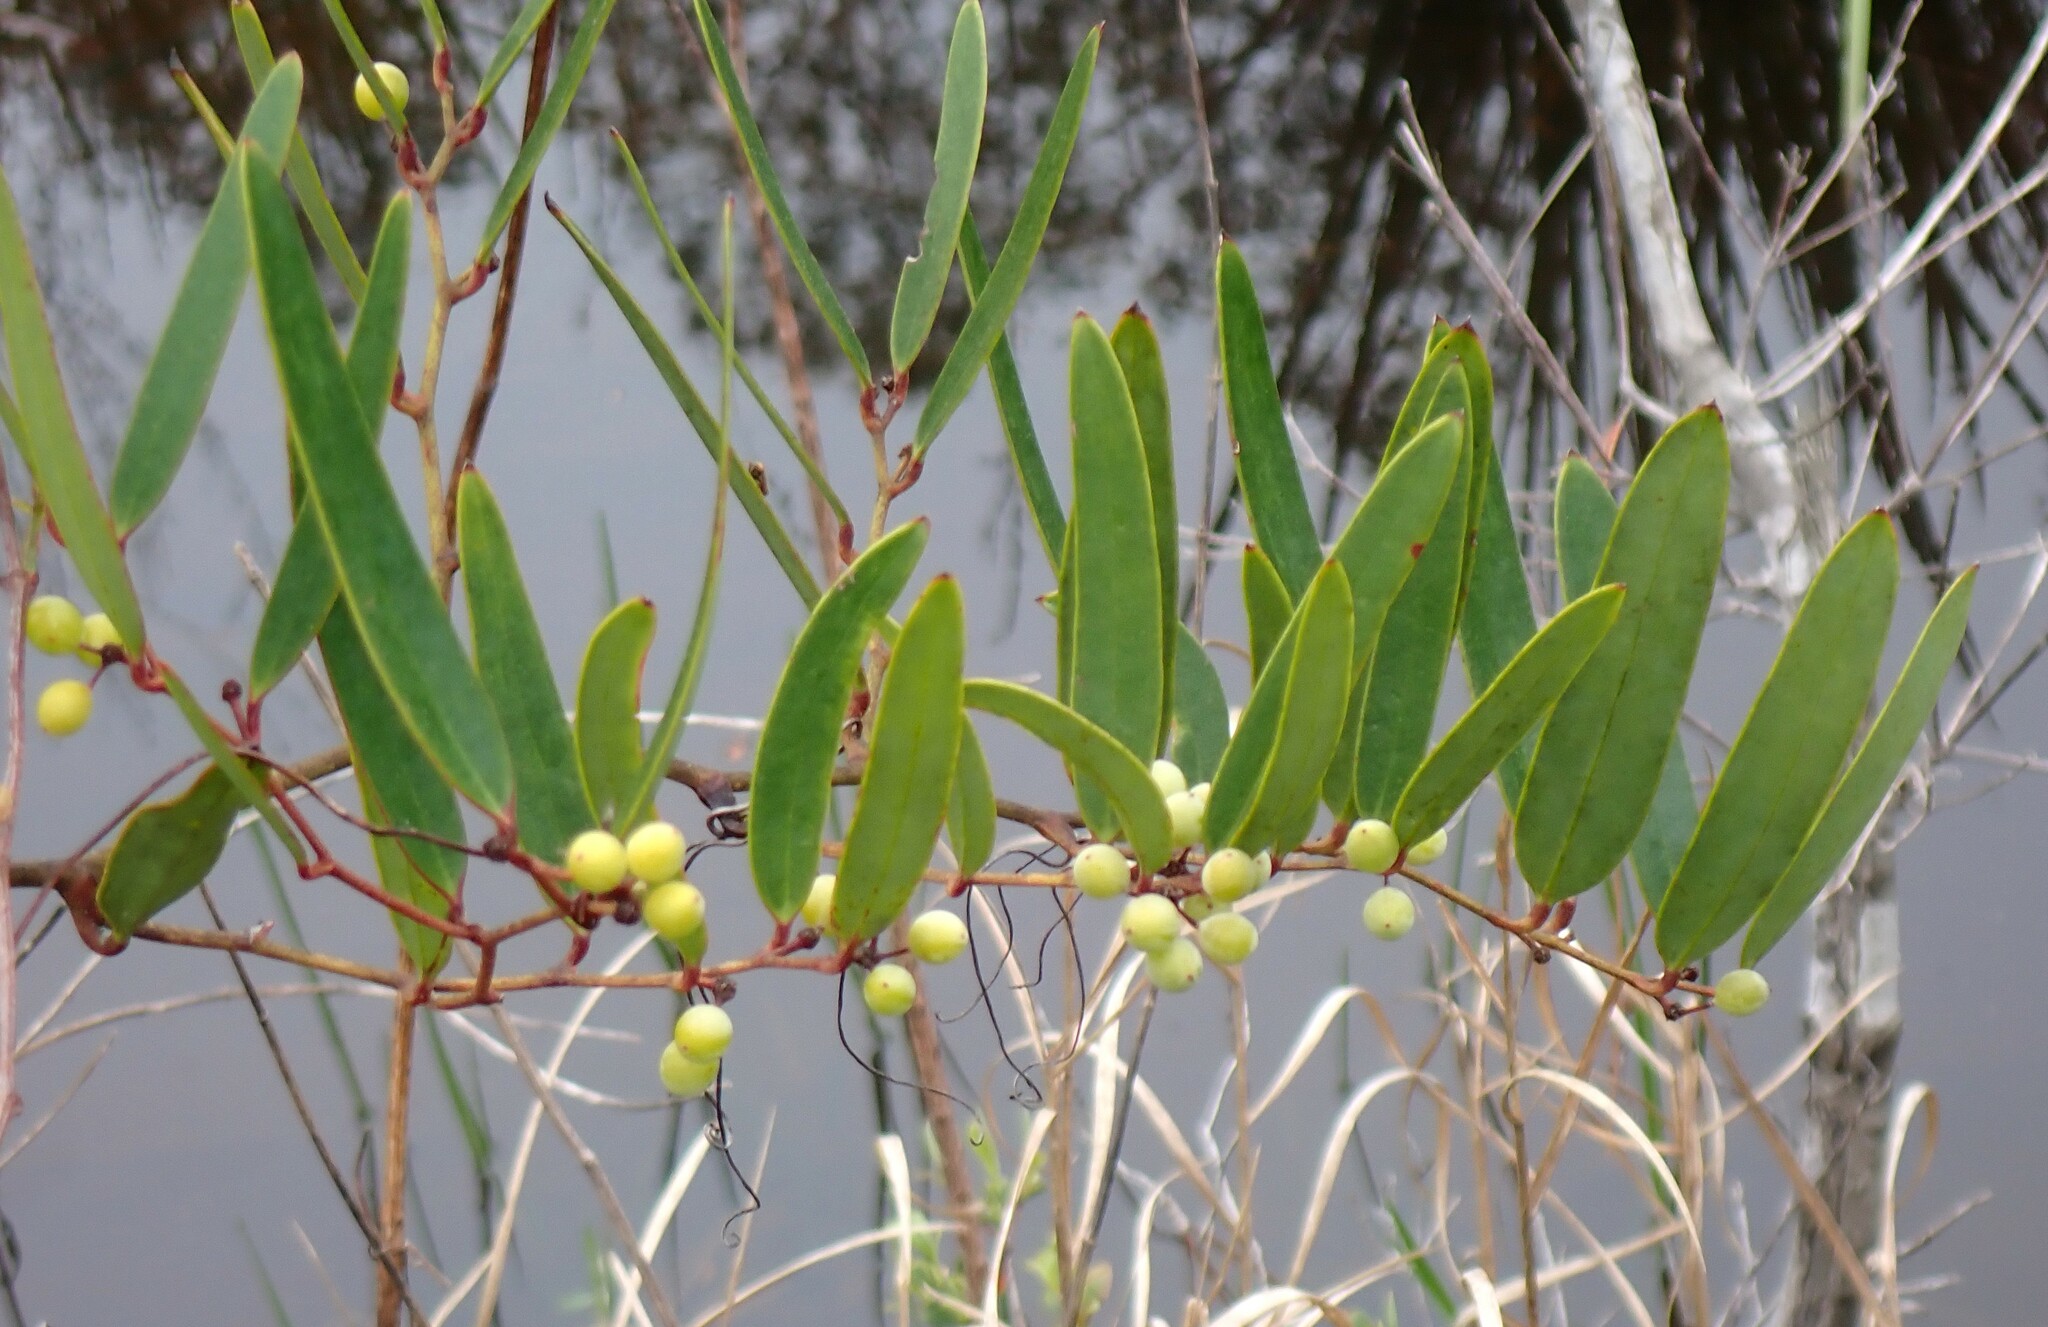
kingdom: Plantae
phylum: Tracheophyta
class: Liliopsida
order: Liliales
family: Smilacaceae
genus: Smilax
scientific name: Smilax laurifolia
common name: Bamboovine
